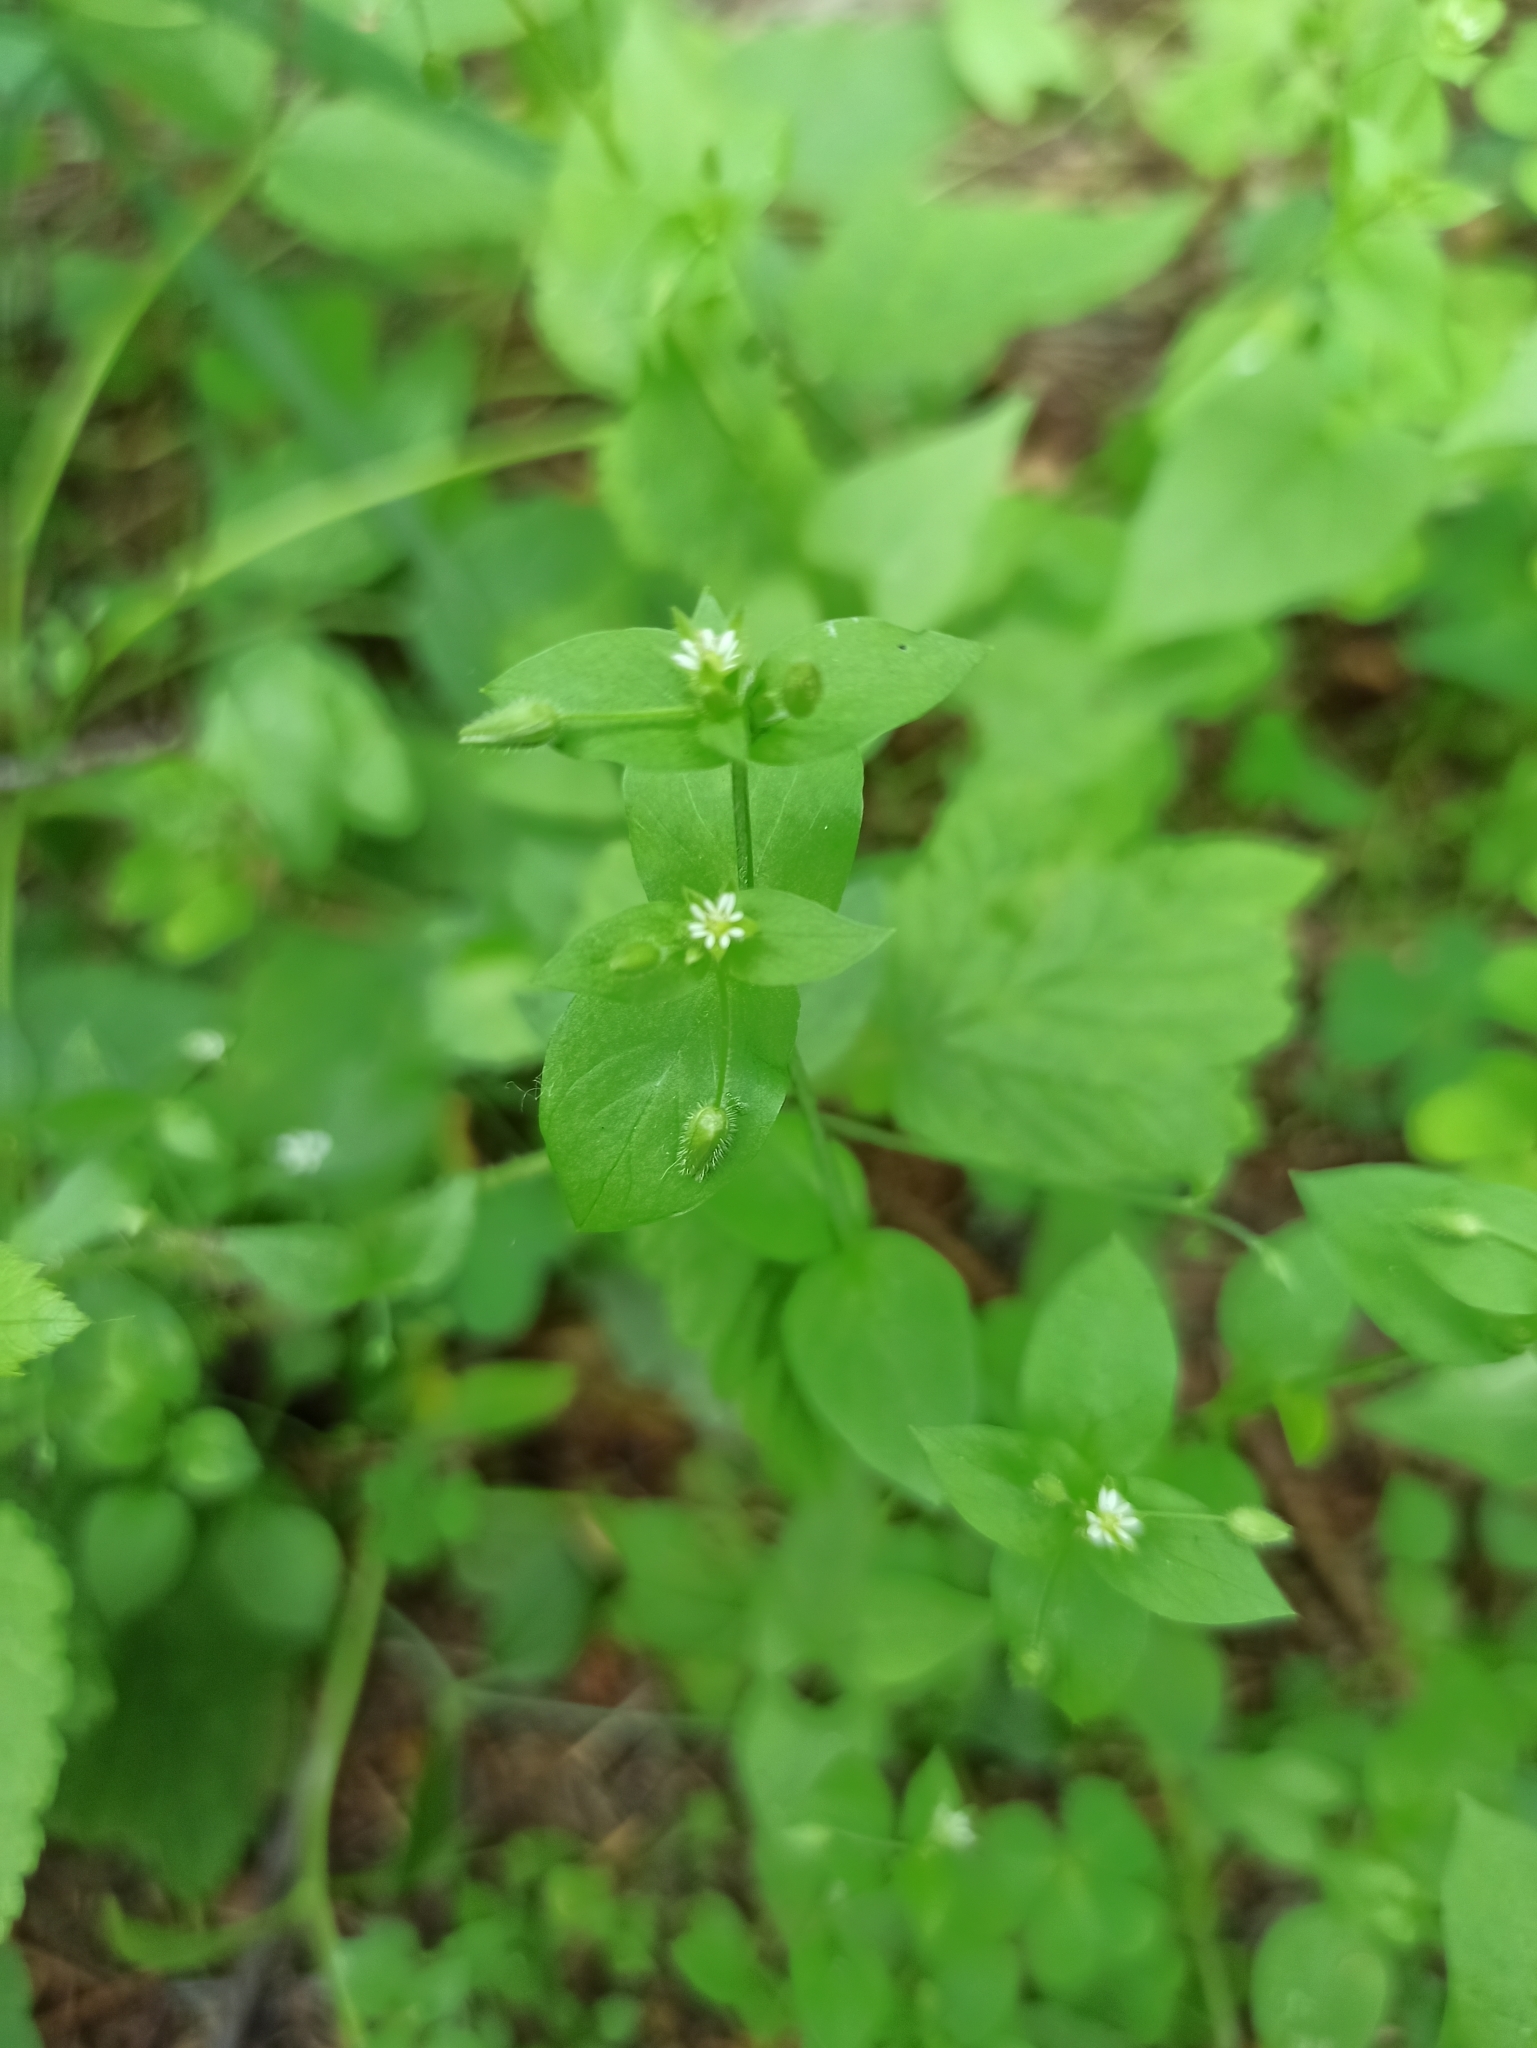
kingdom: Plantae
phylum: Tracheophyta
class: Magnoliopsida
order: Caryophyllales
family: Caryophyllaceae
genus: Stellaria
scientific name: Stellaria media
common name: Common chickweed
